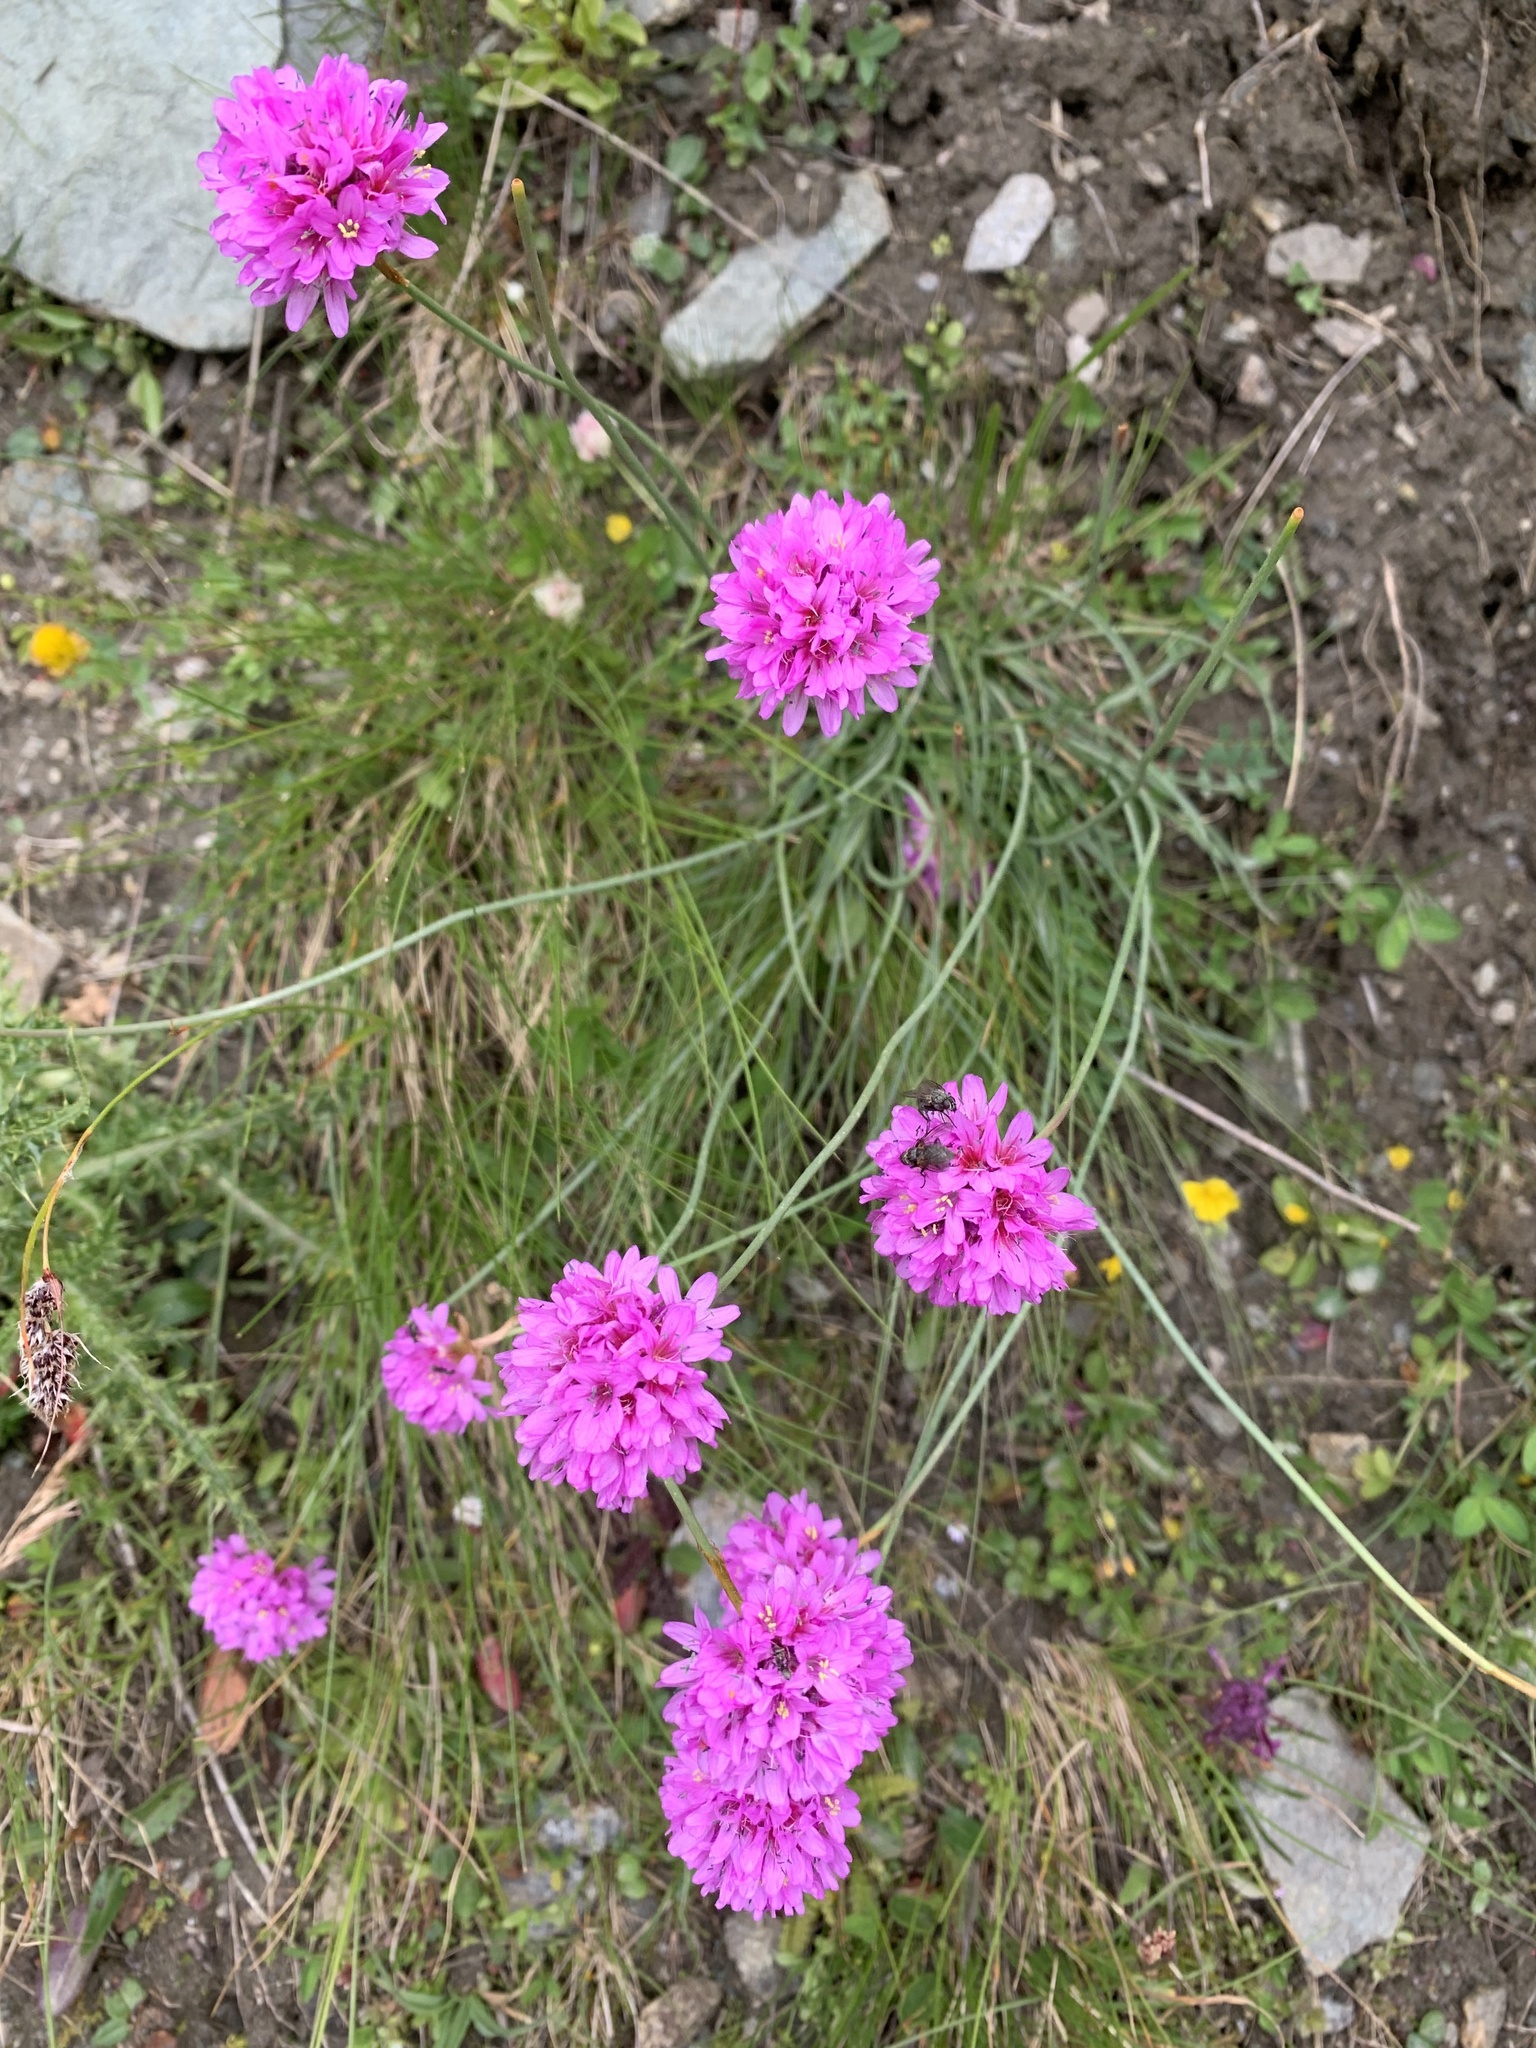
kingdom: Plantae
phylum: Tracheophyta
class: Magnoliopsida
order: Caryophyllales
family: Plumbaginaceae
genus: Armeria
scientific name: Armeria alpina
